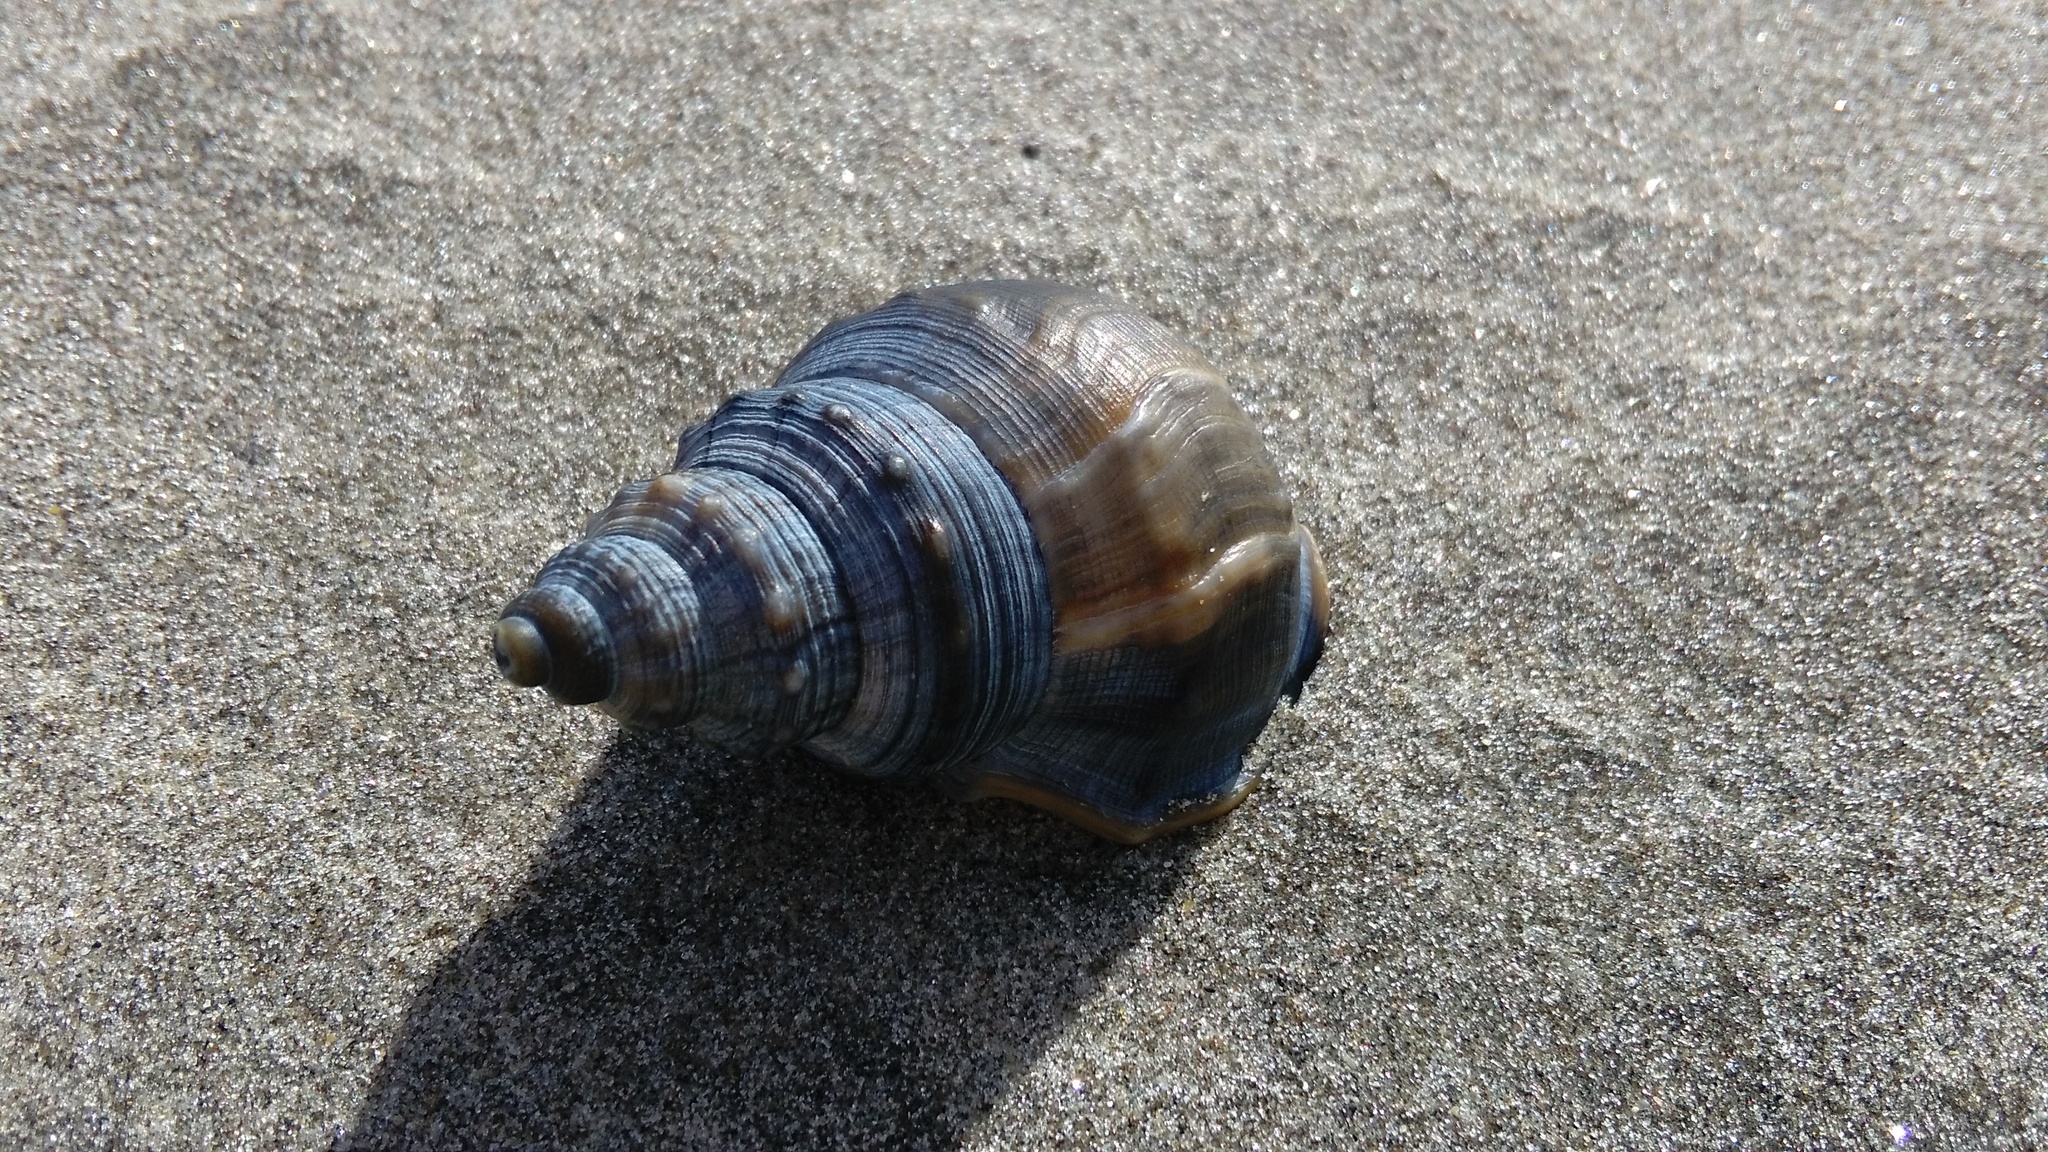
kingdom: Animalia
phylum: Mollusca
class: Gastropoda
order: Littorinimorpha
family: Struthiolariidae
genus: Struthiolaria
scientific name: Struthiolaria papulosa
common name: Large ostrich foot
